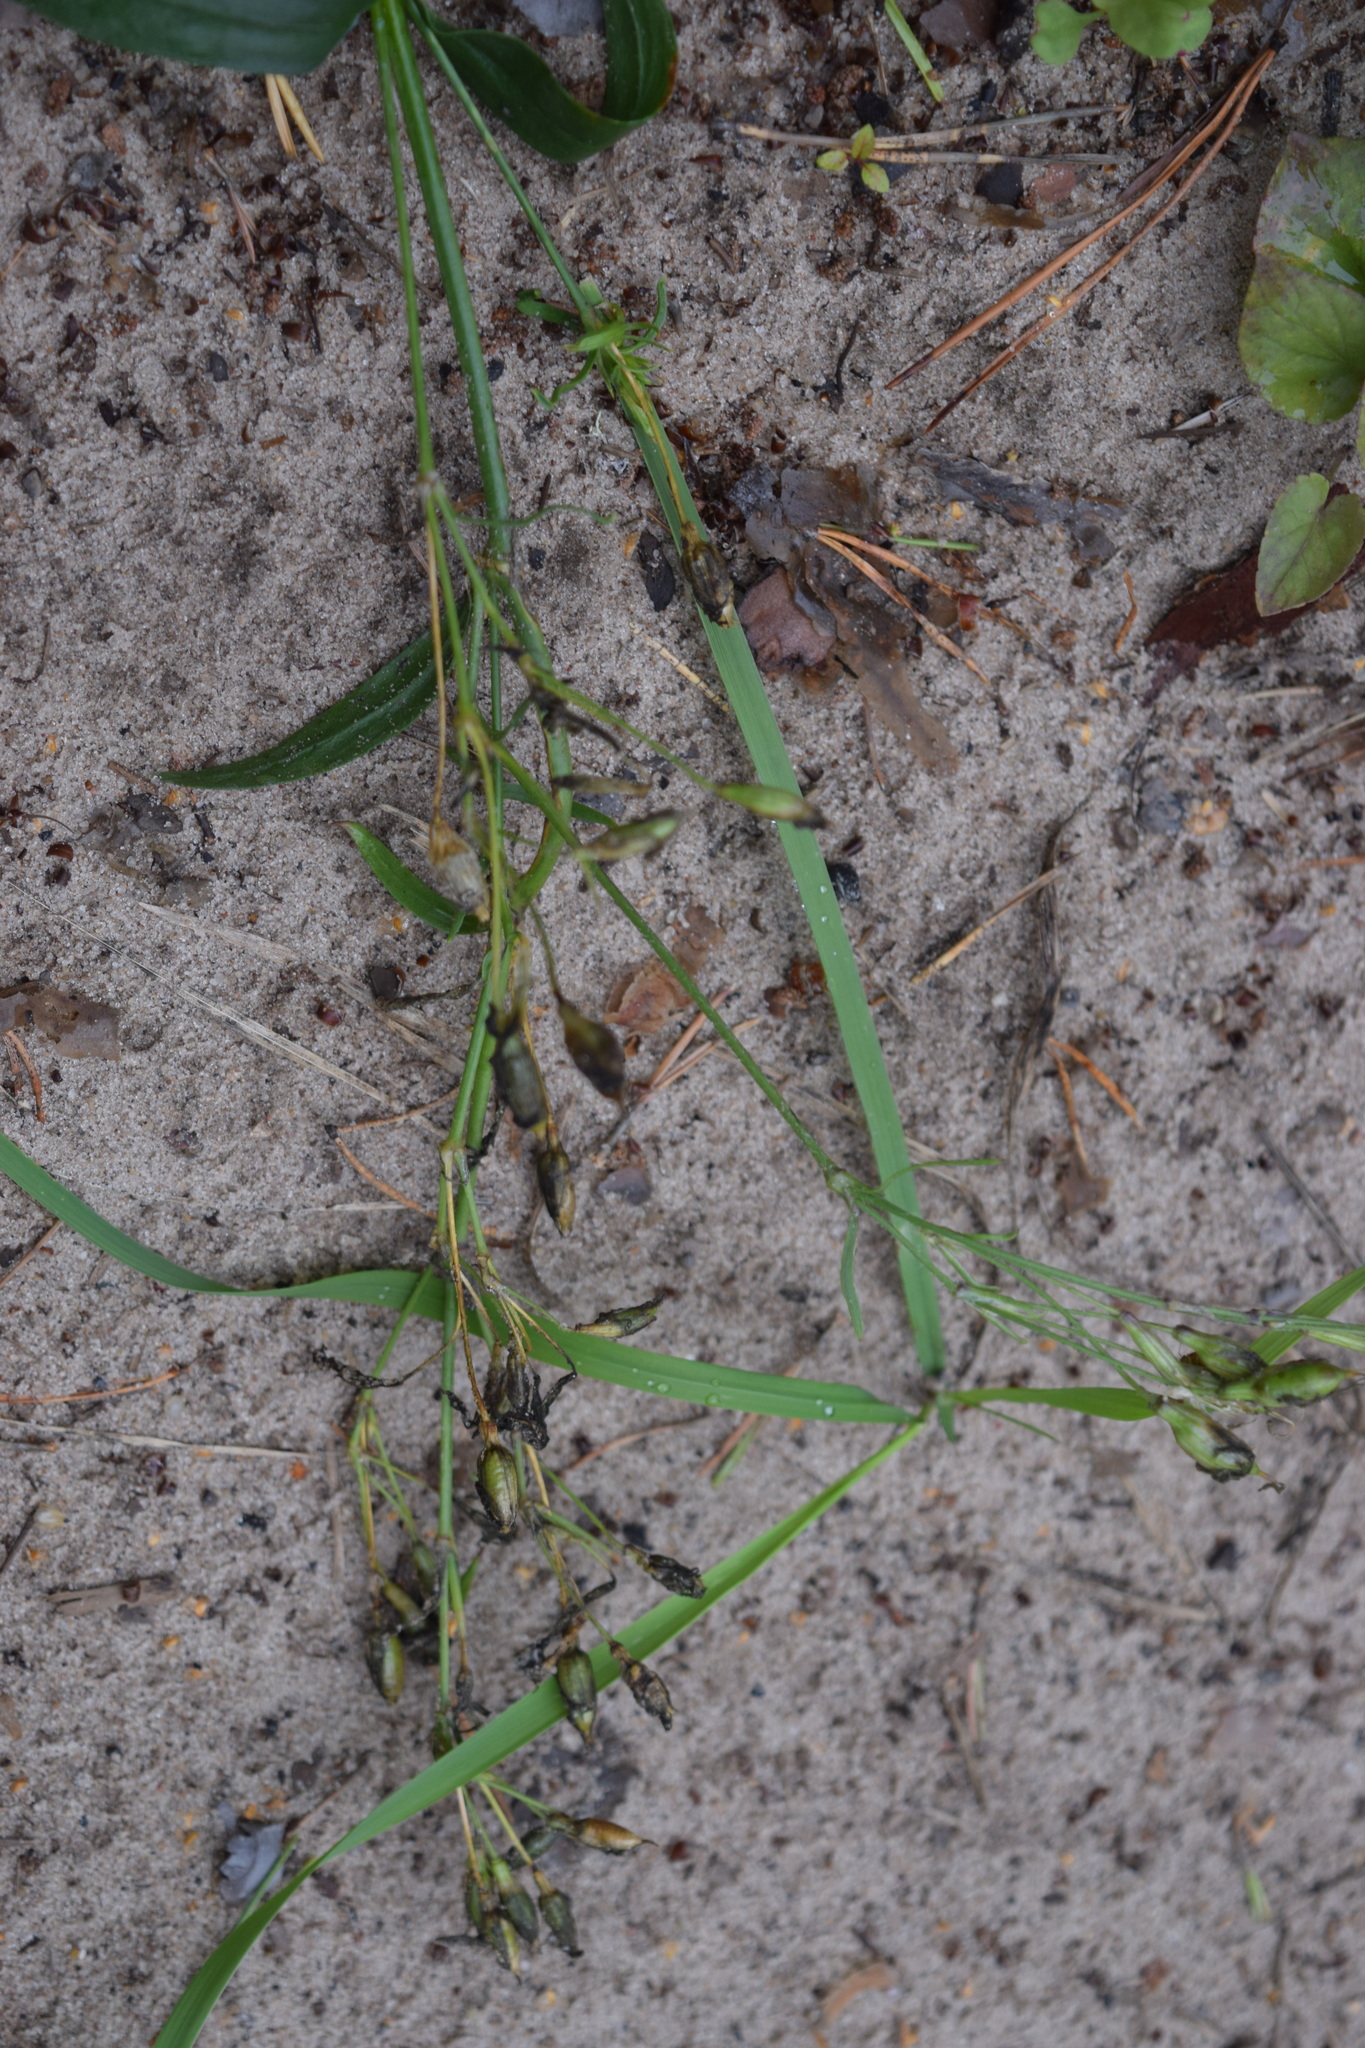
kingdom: Plantae
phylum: Tracheophyta
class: Magnoliopsida
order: Caryophyllales
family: Caryophyllaceae
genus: Silene
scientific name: Silene tatarica
